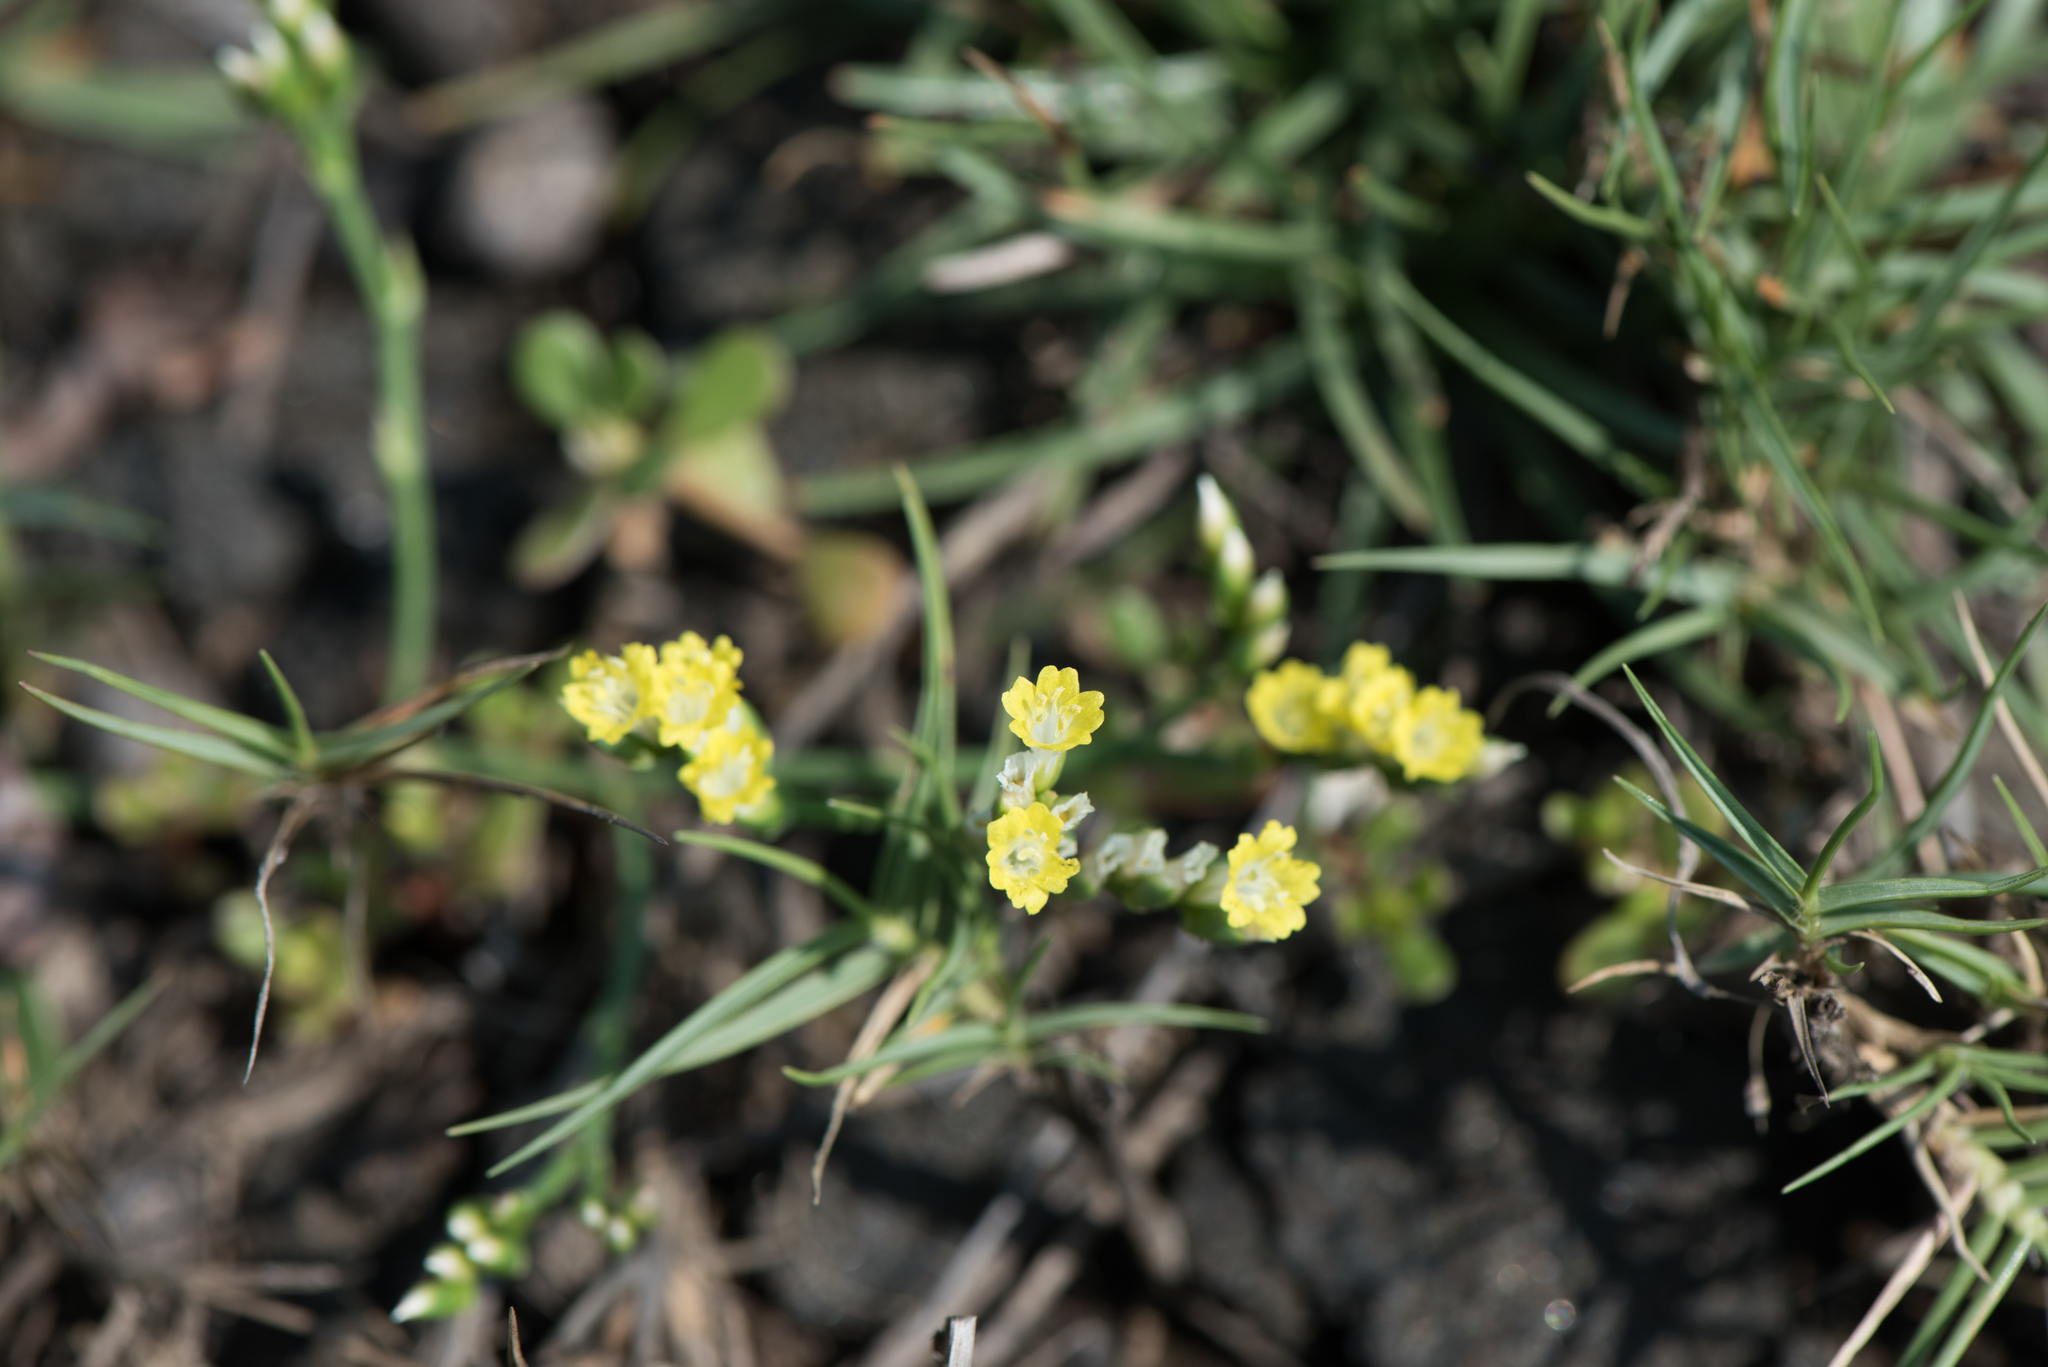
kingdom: Plantae
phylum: Tracheophyta
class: Magnoliopsida
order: Caryophyllales
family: Plumbaginaceae
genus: Limonium
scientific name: Limonium sinense
